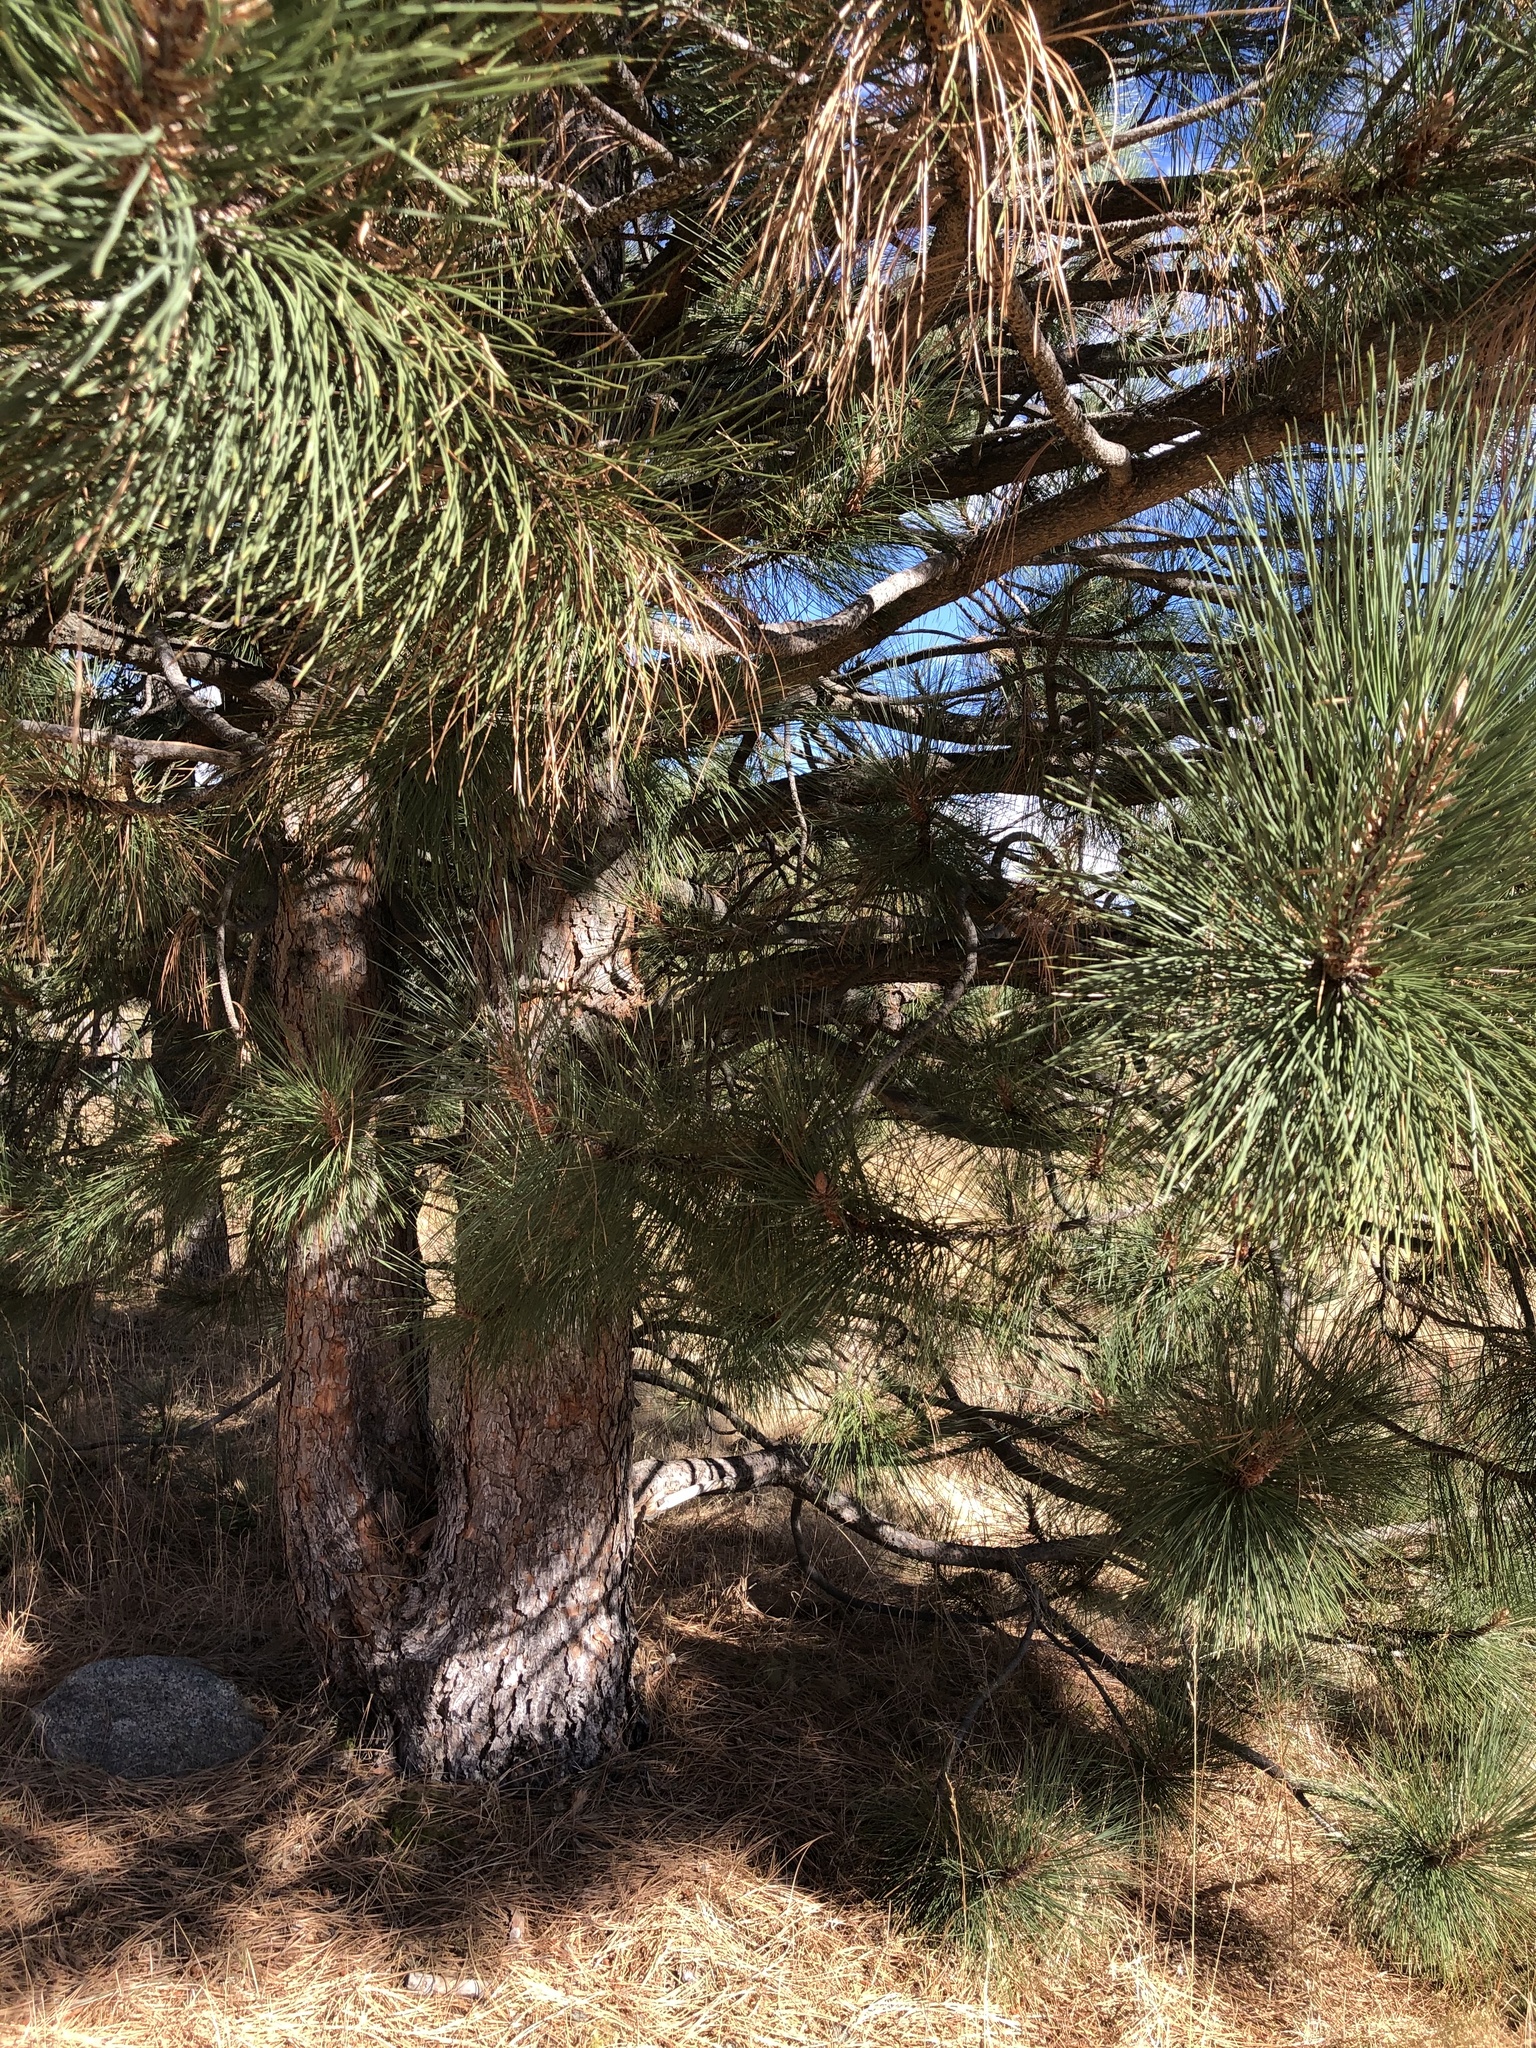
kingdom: Plantae
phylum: Tracheophyta
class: Pinopsida
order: Pinales
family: Pinaceae
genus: Pinus
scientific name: Pinus coulteri
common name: Coulter pine
